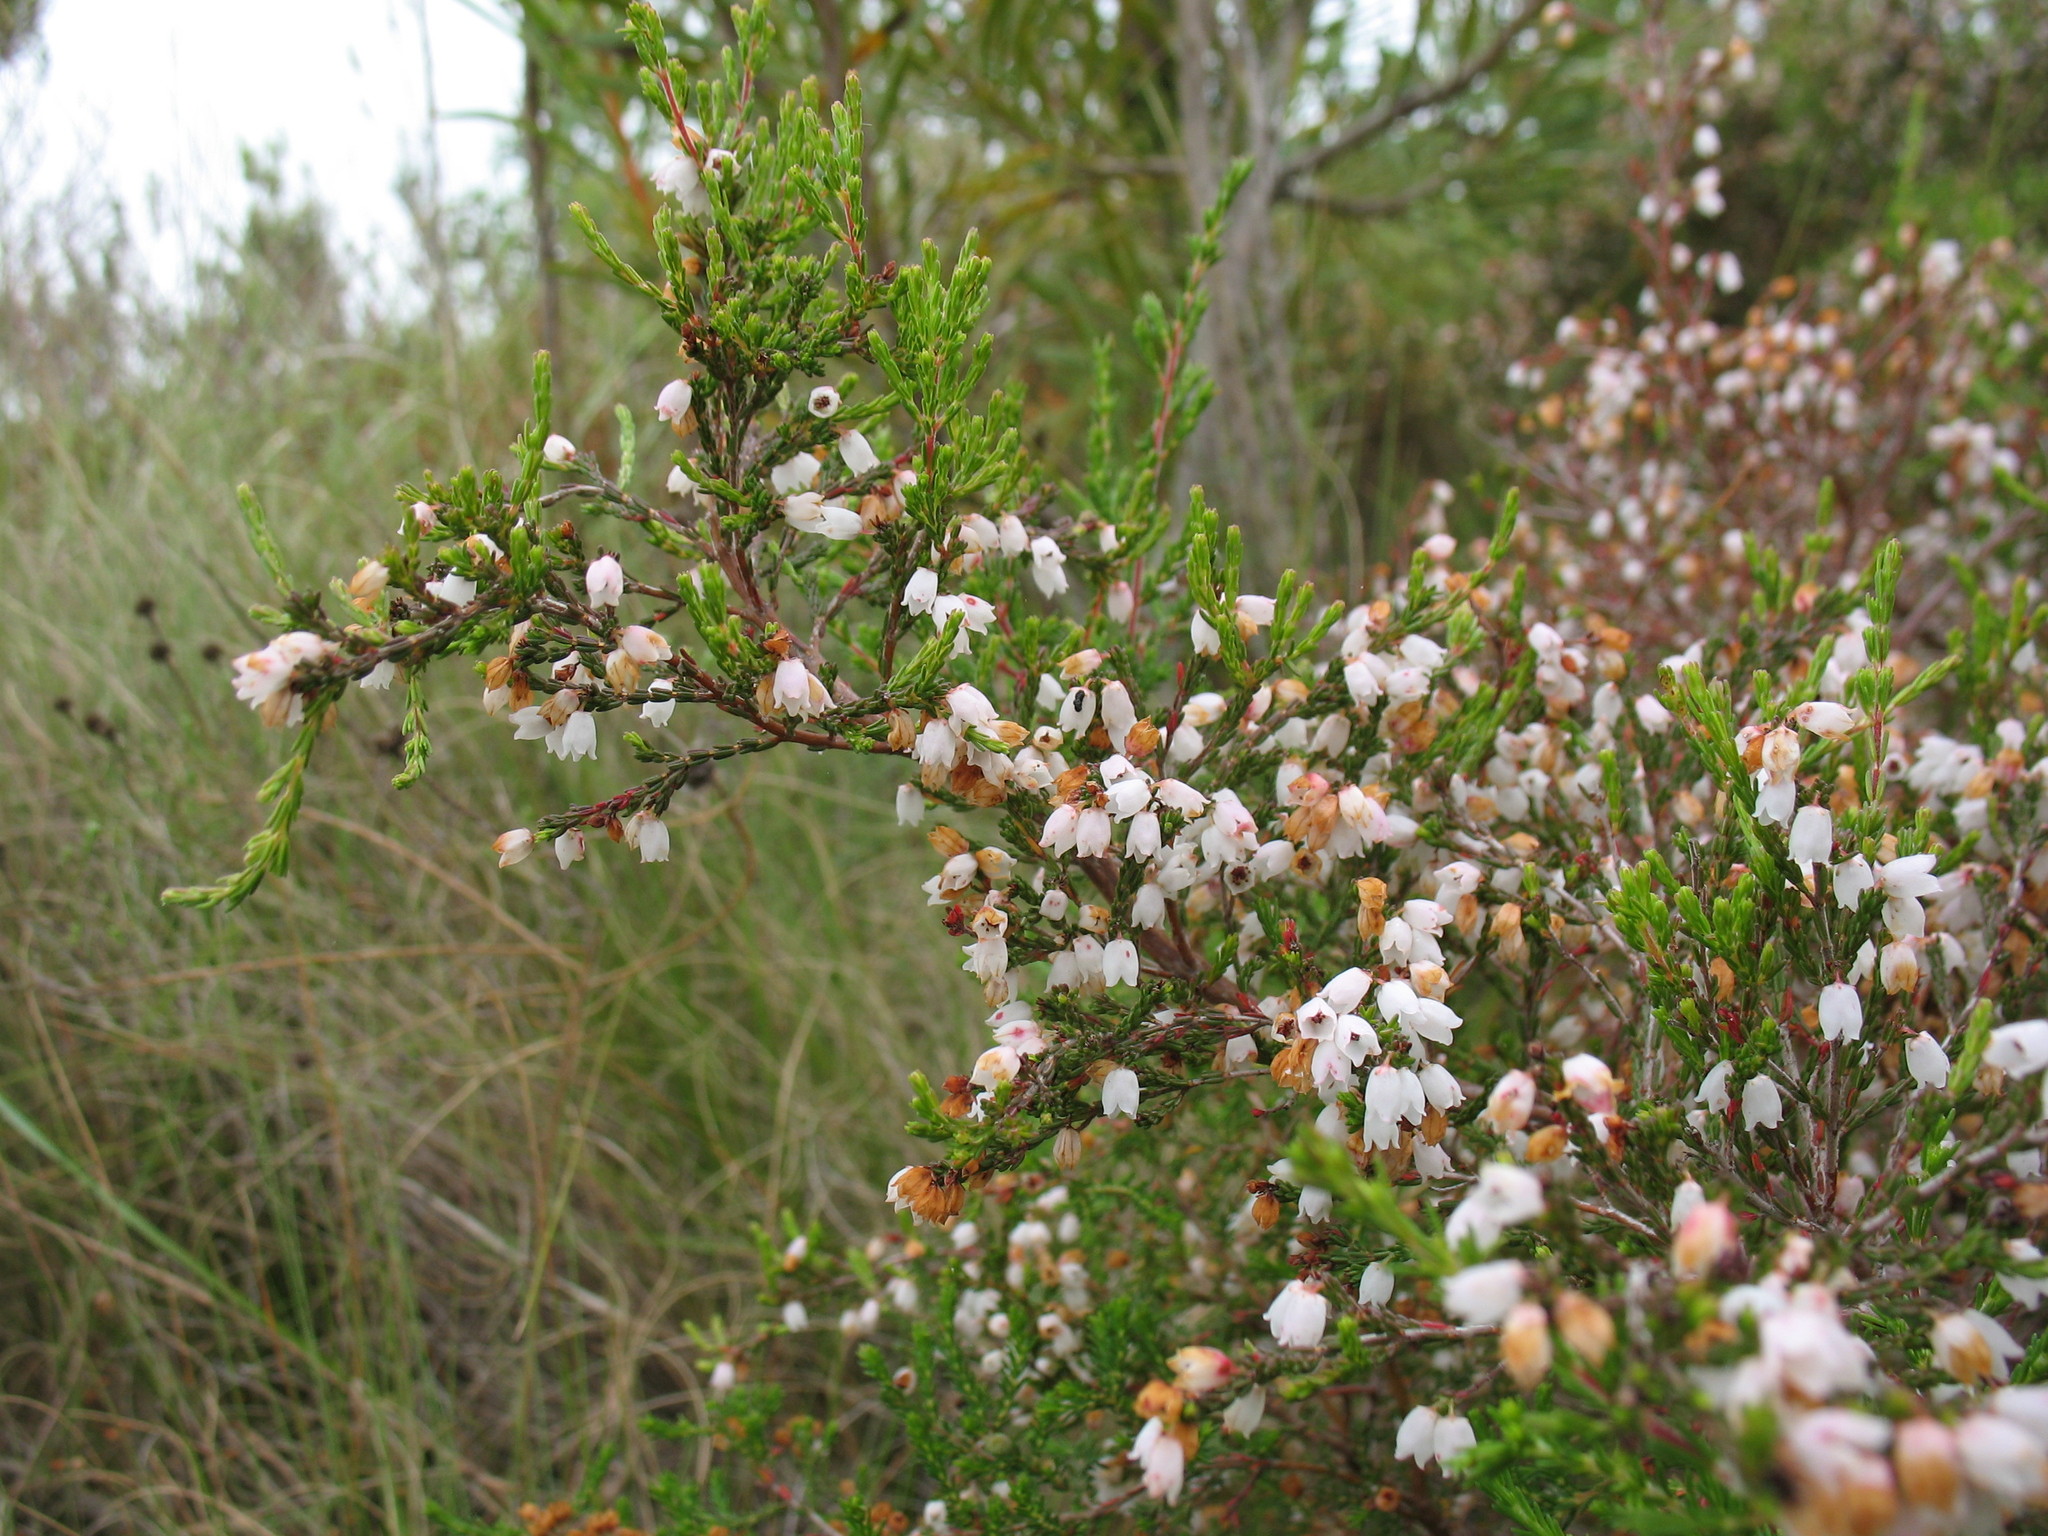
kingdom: Plantae
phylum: Tracheophyta
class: Magnoliopsida
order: Ericales
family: Ericaceae
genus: Erica
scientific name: Erica quadrangularis
